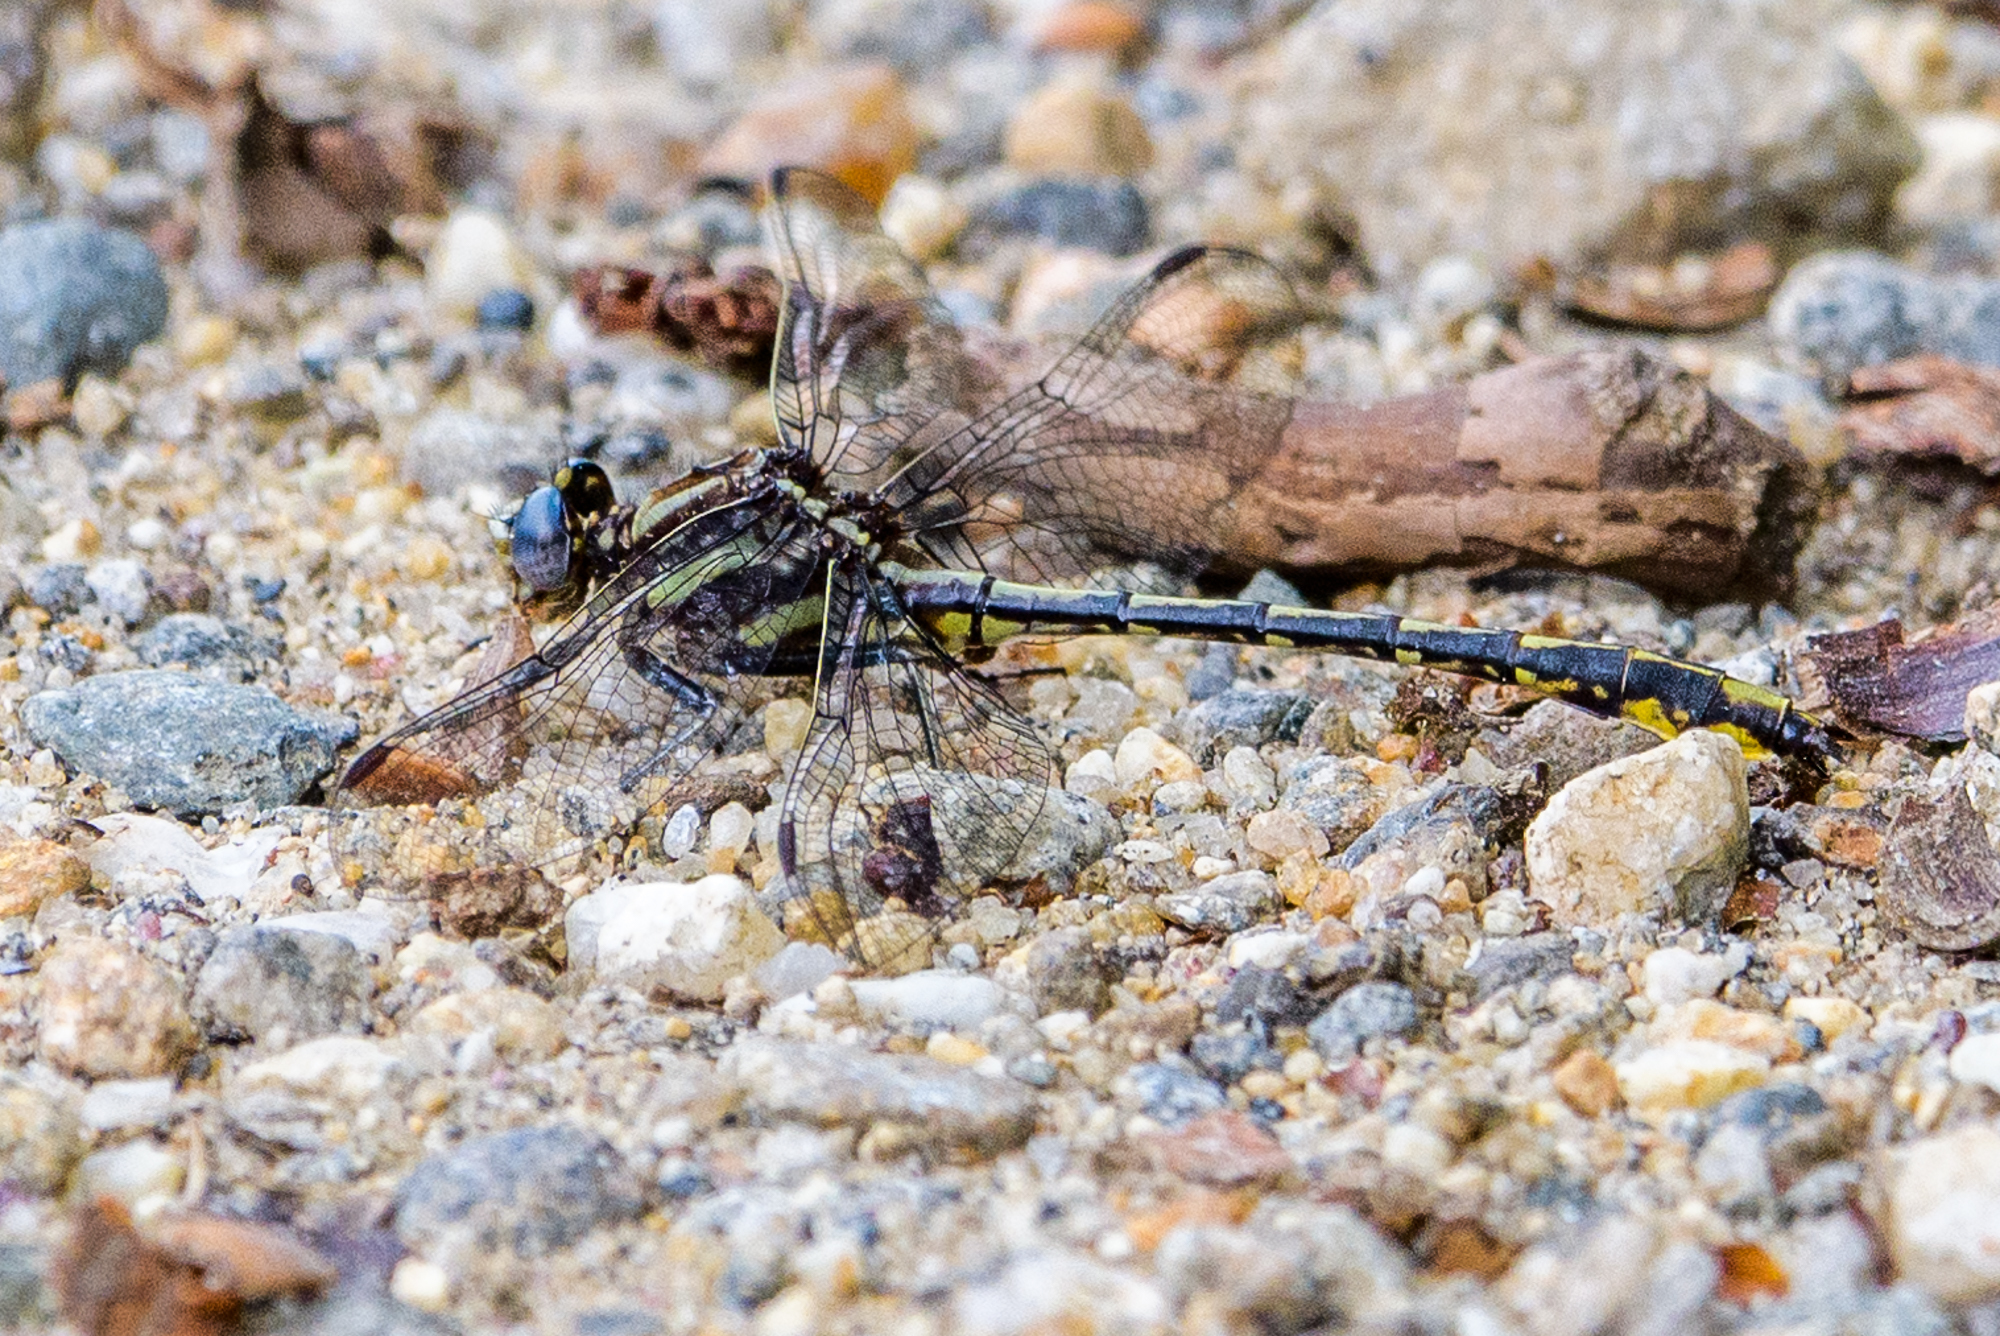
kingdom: Animalia
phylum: Arthropoda
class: Insecta
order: Odonata
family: Gomphidae
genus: Phanogomphus
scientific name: Phanogomphus exilis
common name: Lancet clubtail
